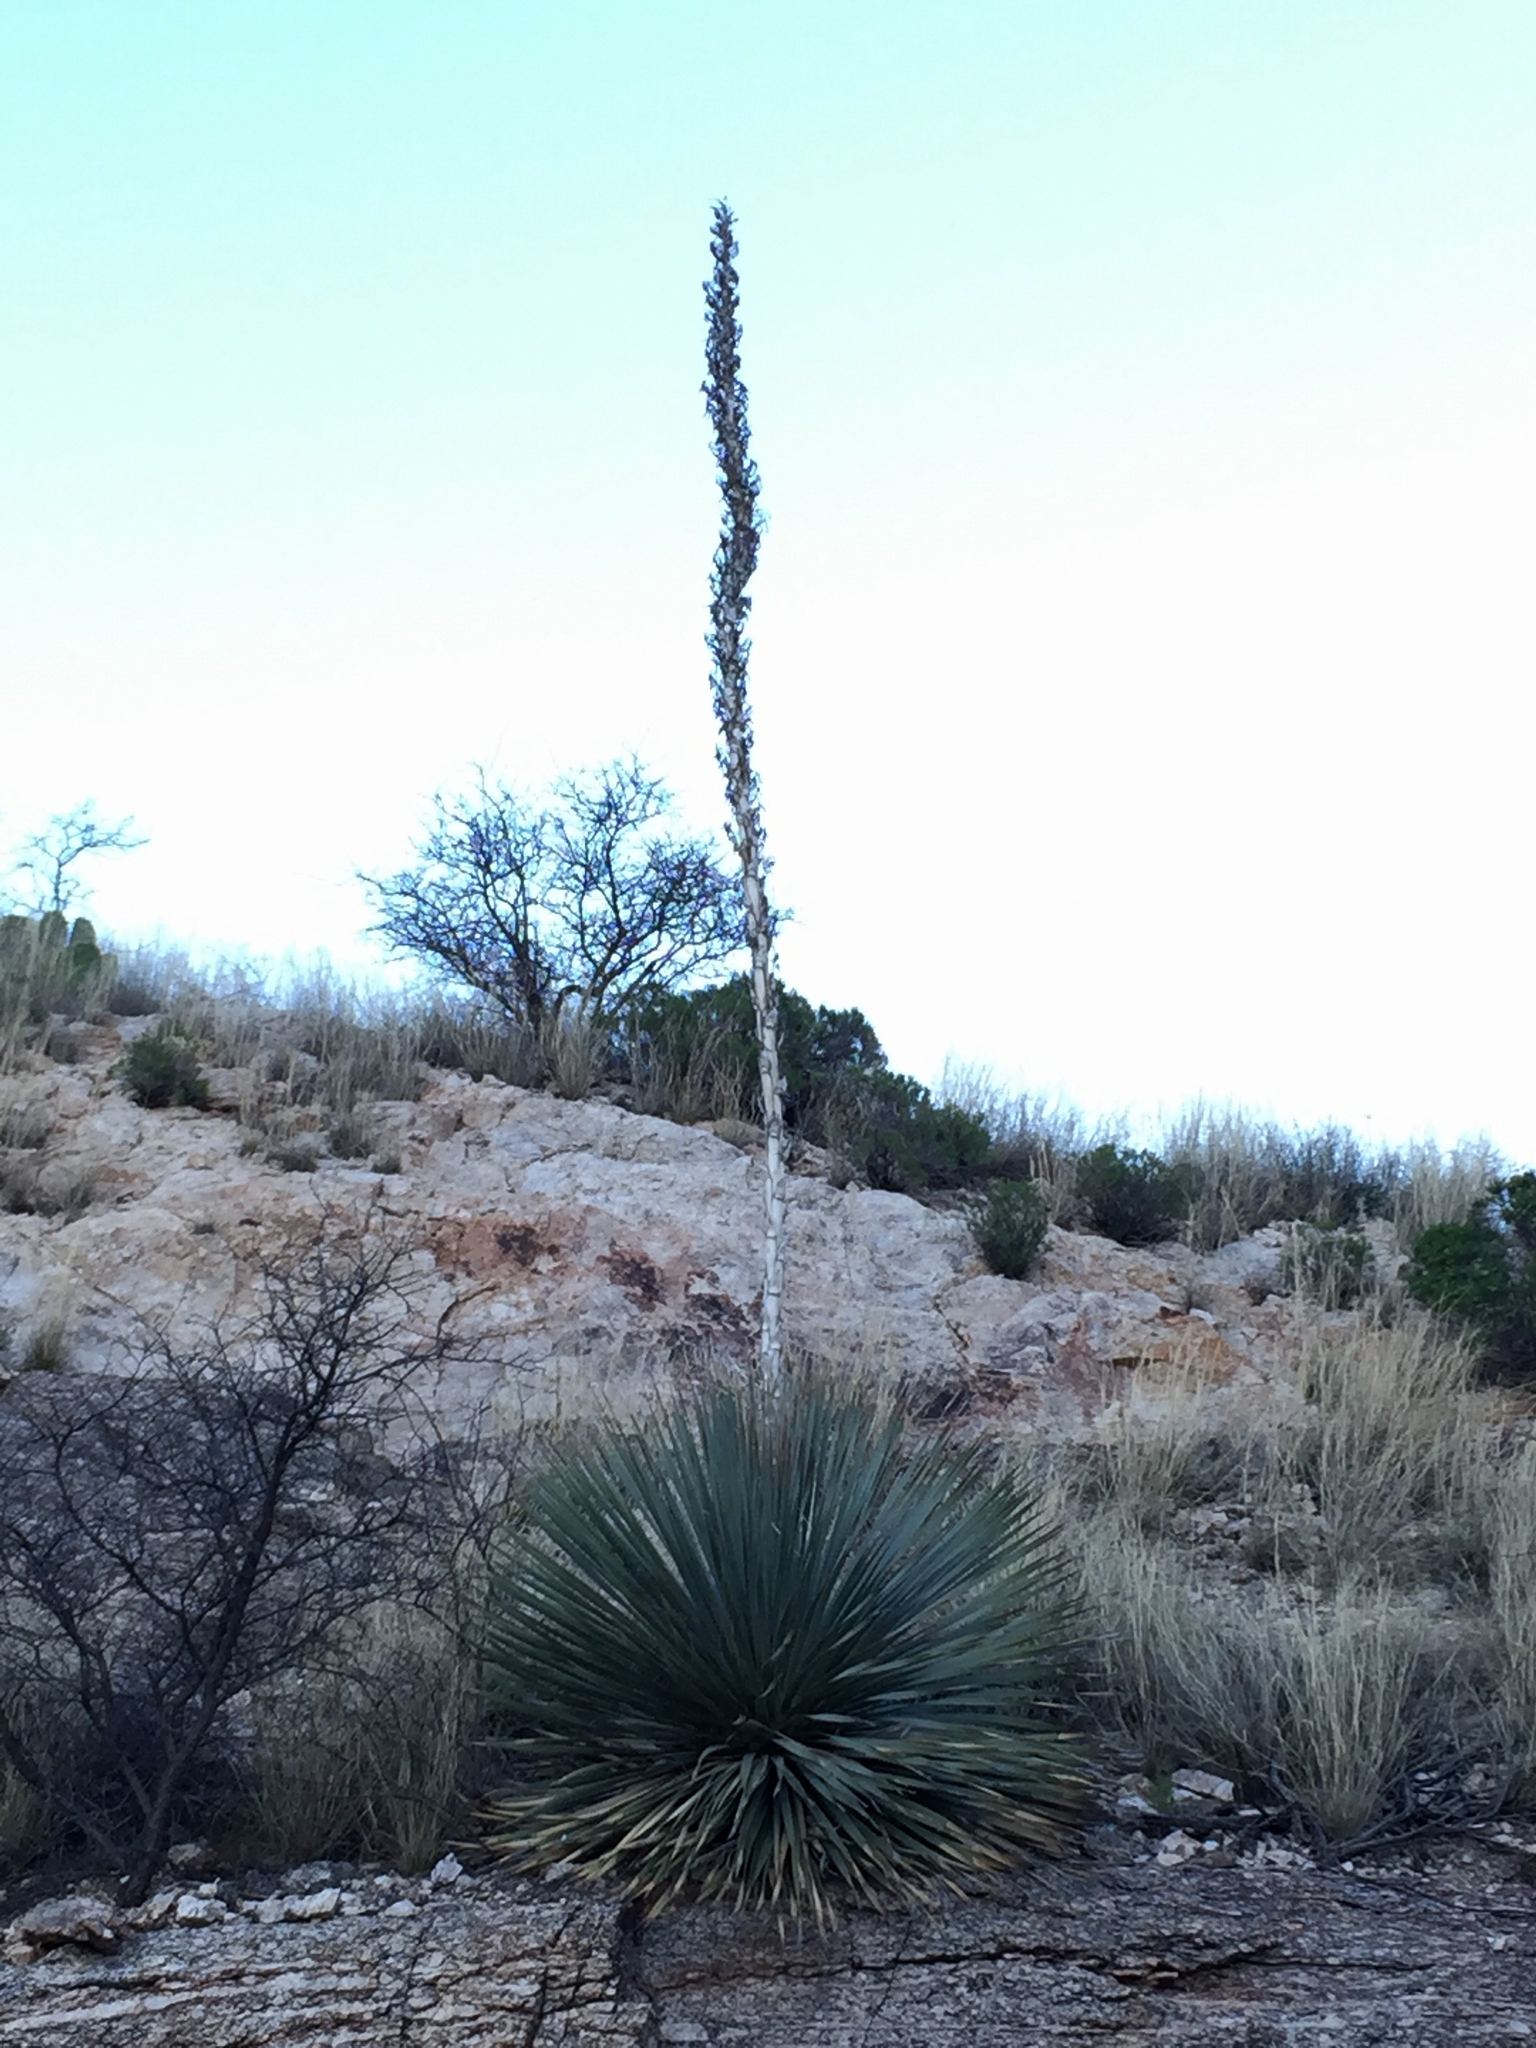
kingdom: Plantae
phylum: Tracheophyta
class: Liliopsida
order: Asparagales
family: Asparagaceae
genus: Dasylirion
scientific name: Dasylirion wheeleri
